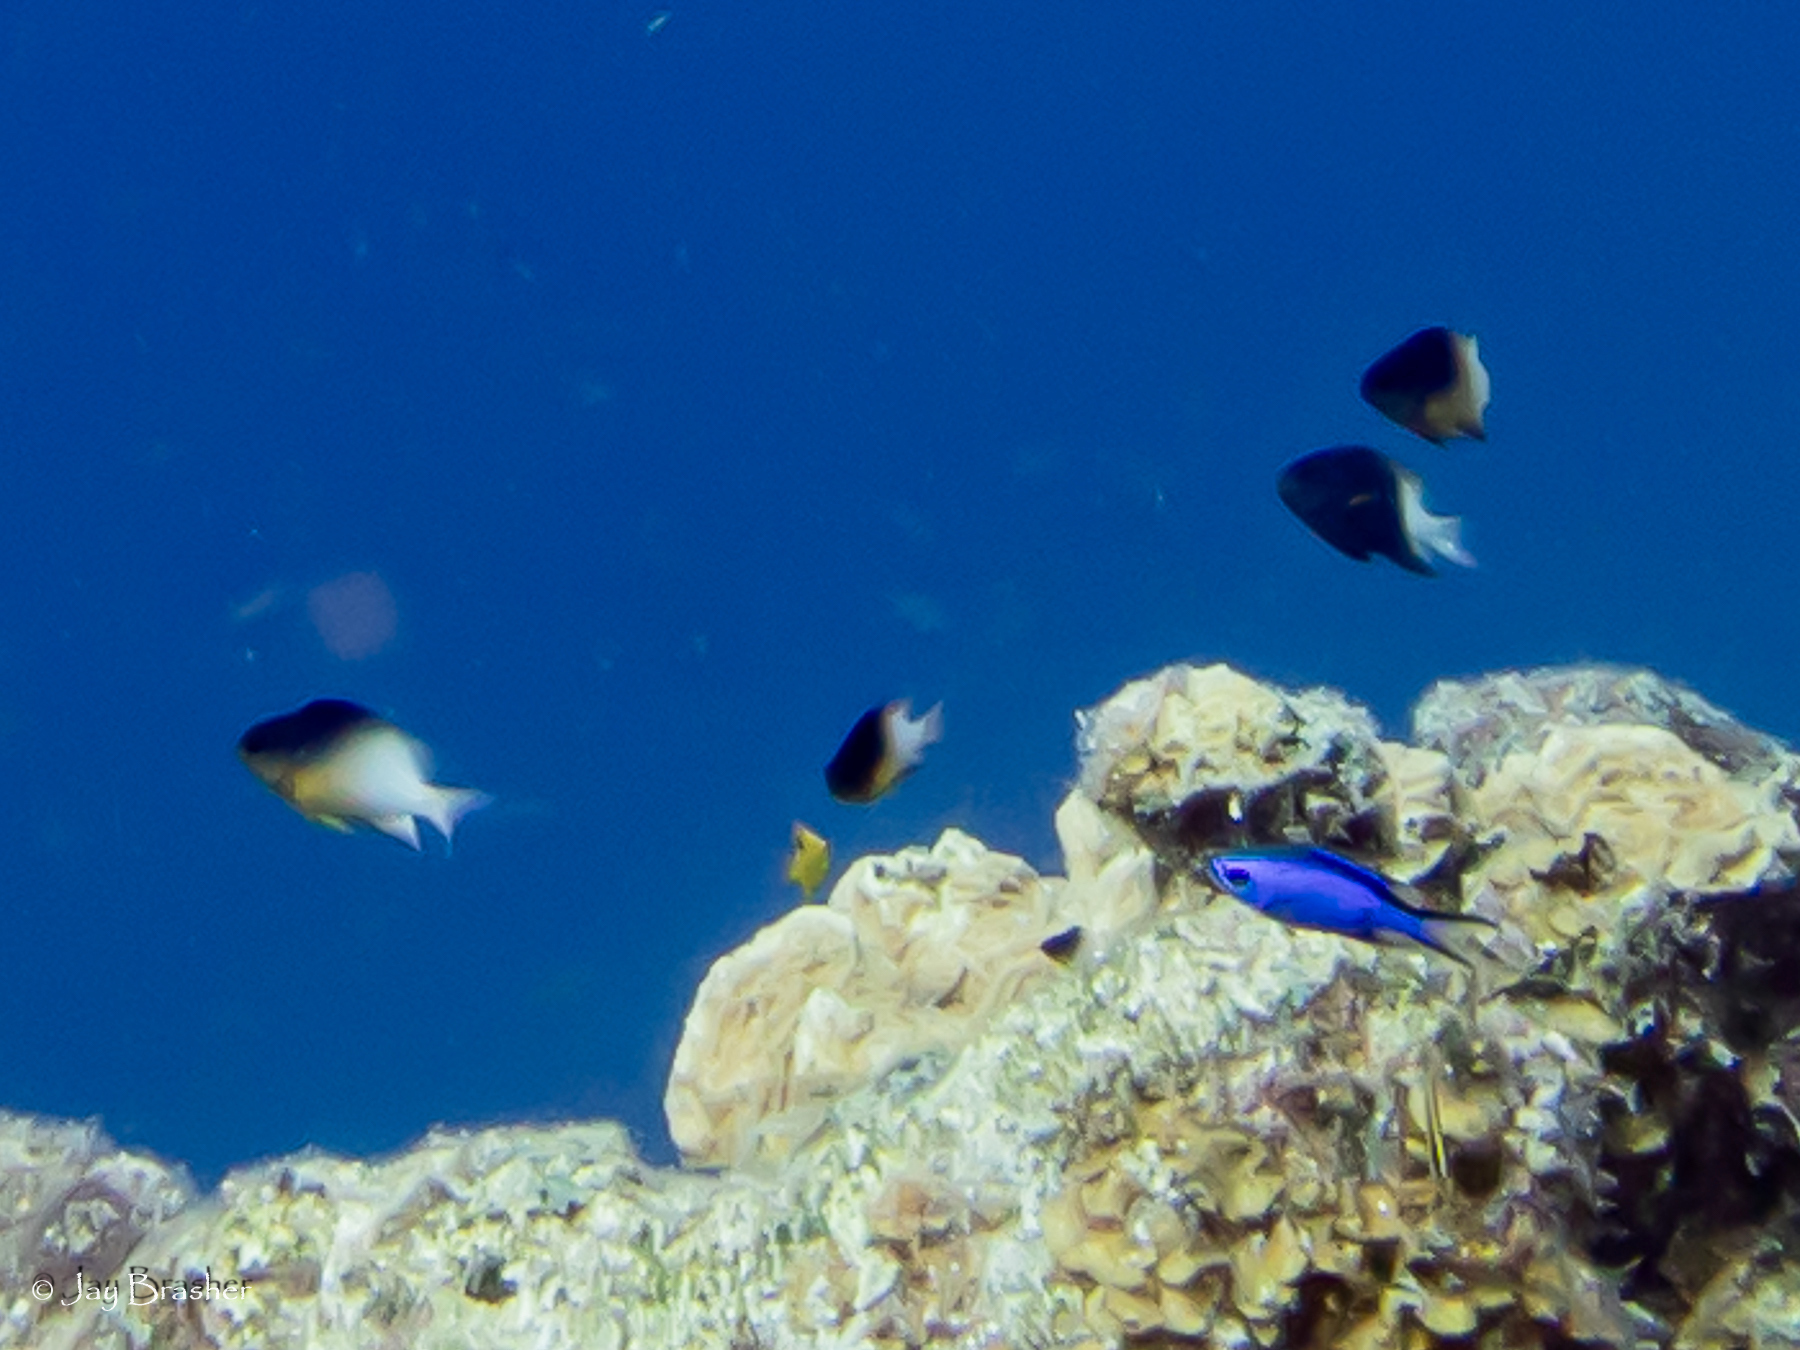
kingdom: Animalia
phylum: Chordata
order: Perciformes
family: Pomacentridae
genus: Chromis
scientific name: Chromis cyanea
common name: Blue chromis
